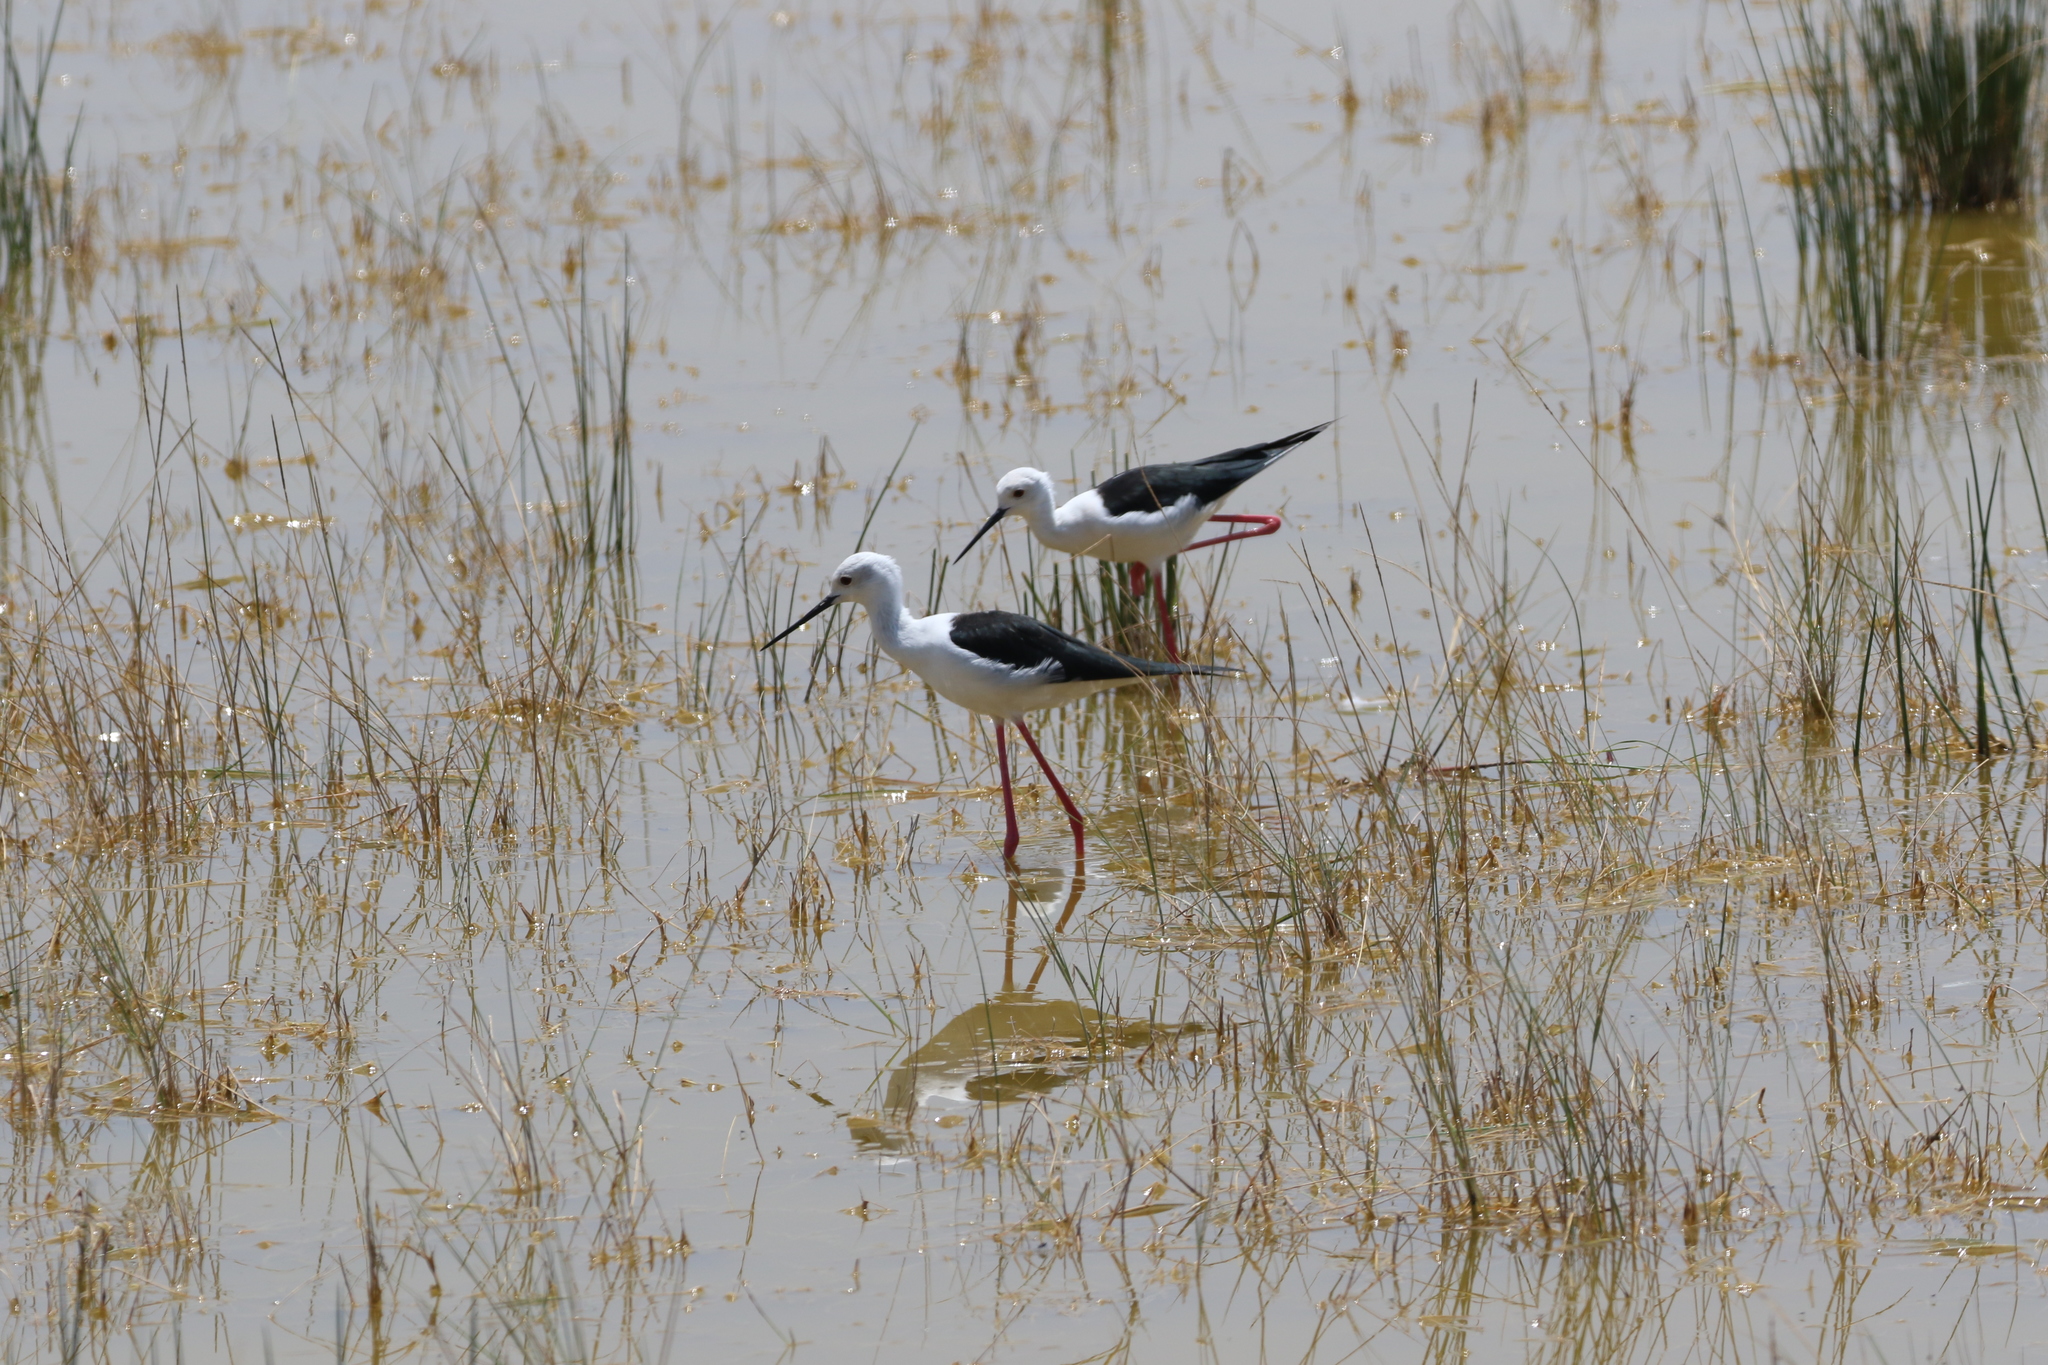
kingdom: Animalia
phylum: Chordata
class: Aves
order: Charadriiformes
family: Recurvirostridae
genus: Himantopus
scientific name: Himantopus himantopus
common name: Black-winged stilt
